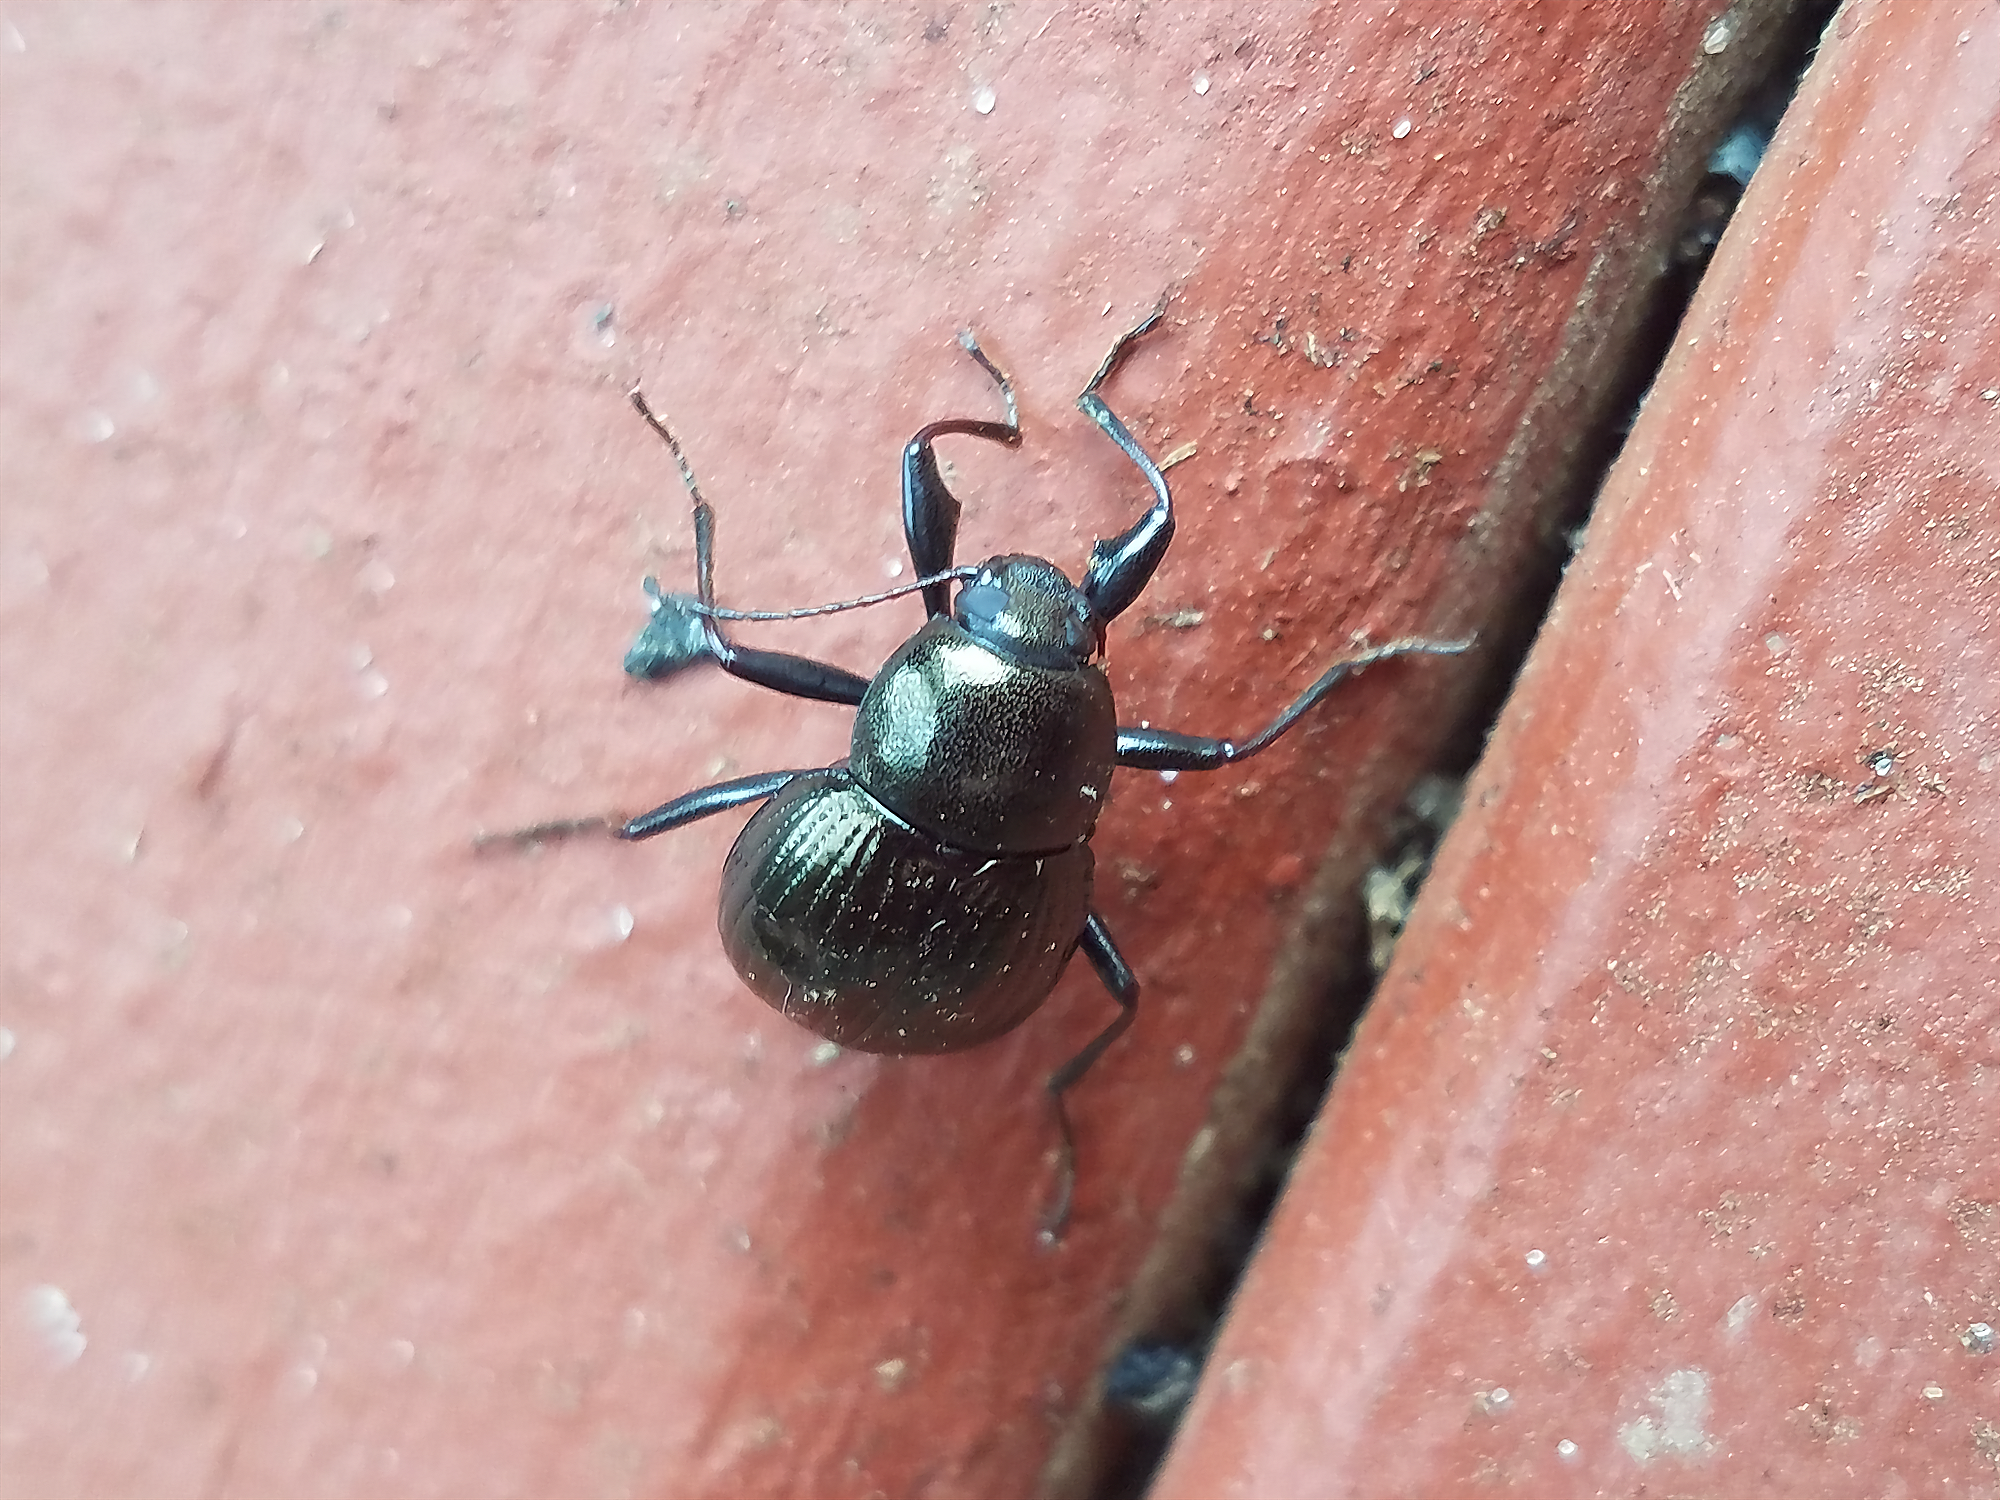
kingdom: Animalia
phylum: Arthropoda
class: Insecta
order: Coleoptera
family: Tenebrionidae
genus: Meracantha
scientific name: Meracantha contracta
